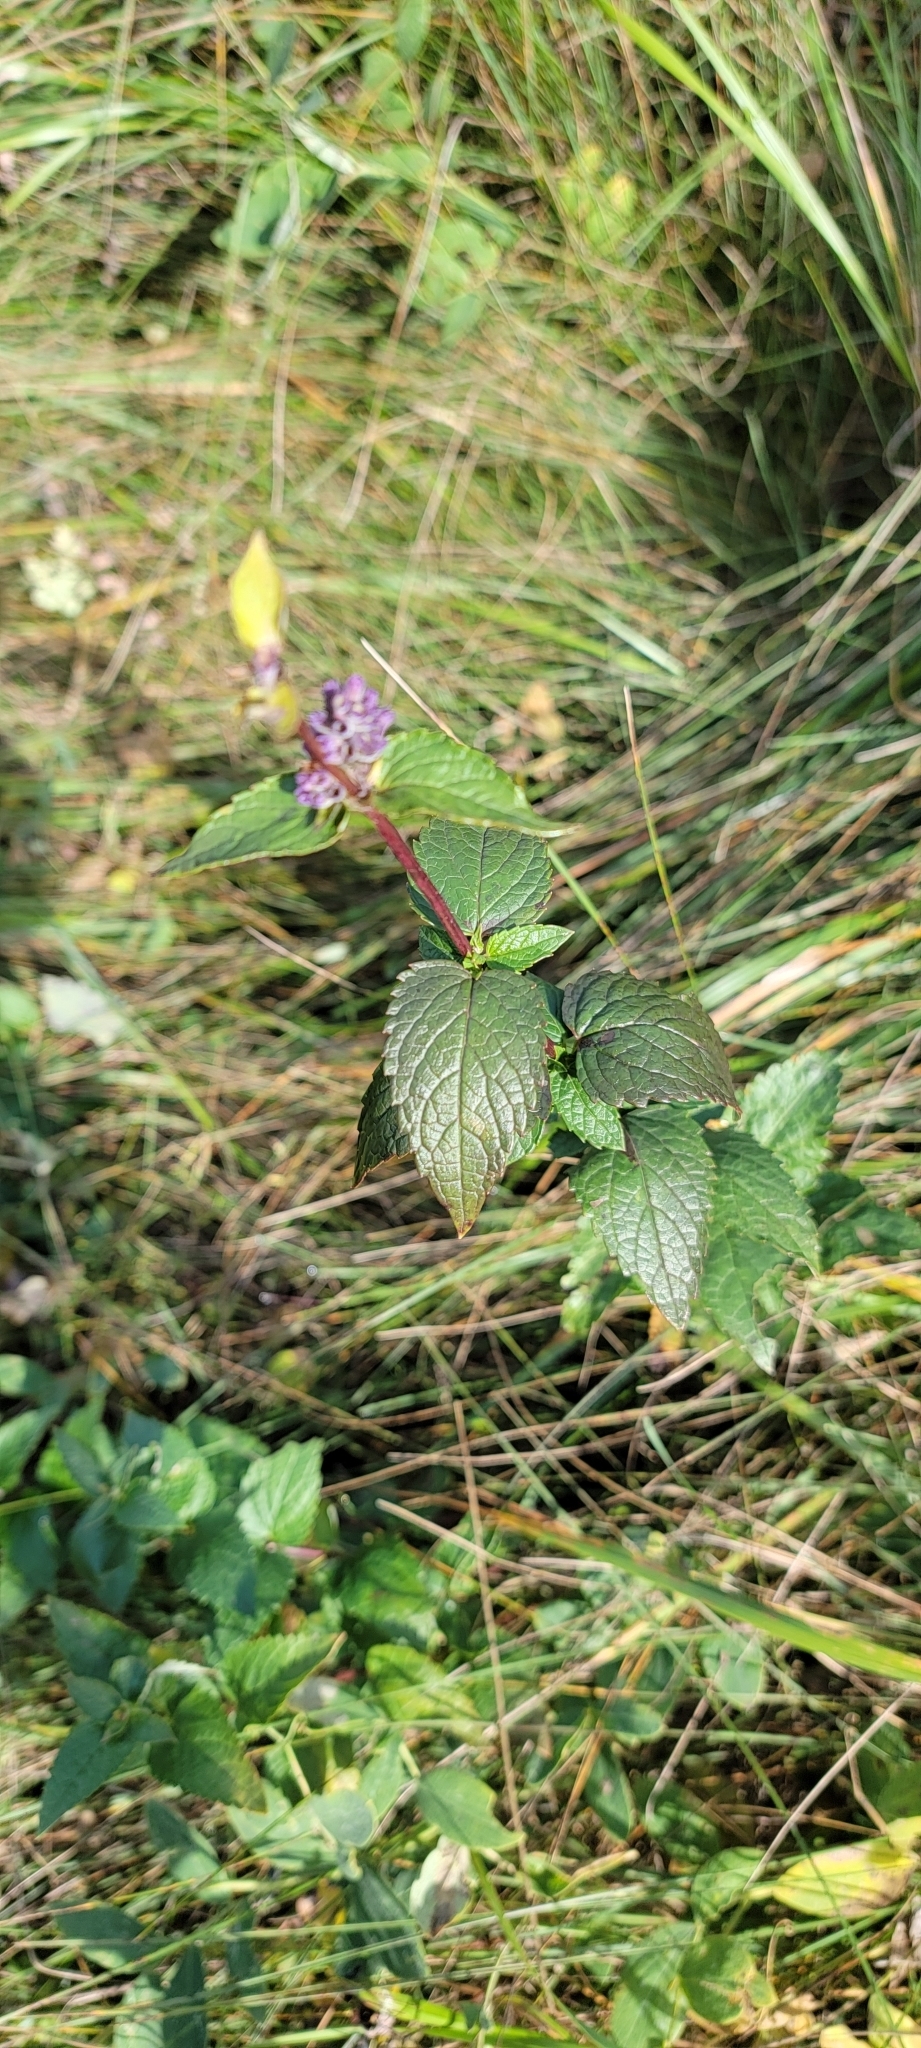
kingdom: Plantae
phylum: Tracheophyta
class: Magnoliopsida
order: Lamiales
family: Lamiaceae
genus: Agastache
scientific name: Agastache foeniculum
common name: Anise hyssop
